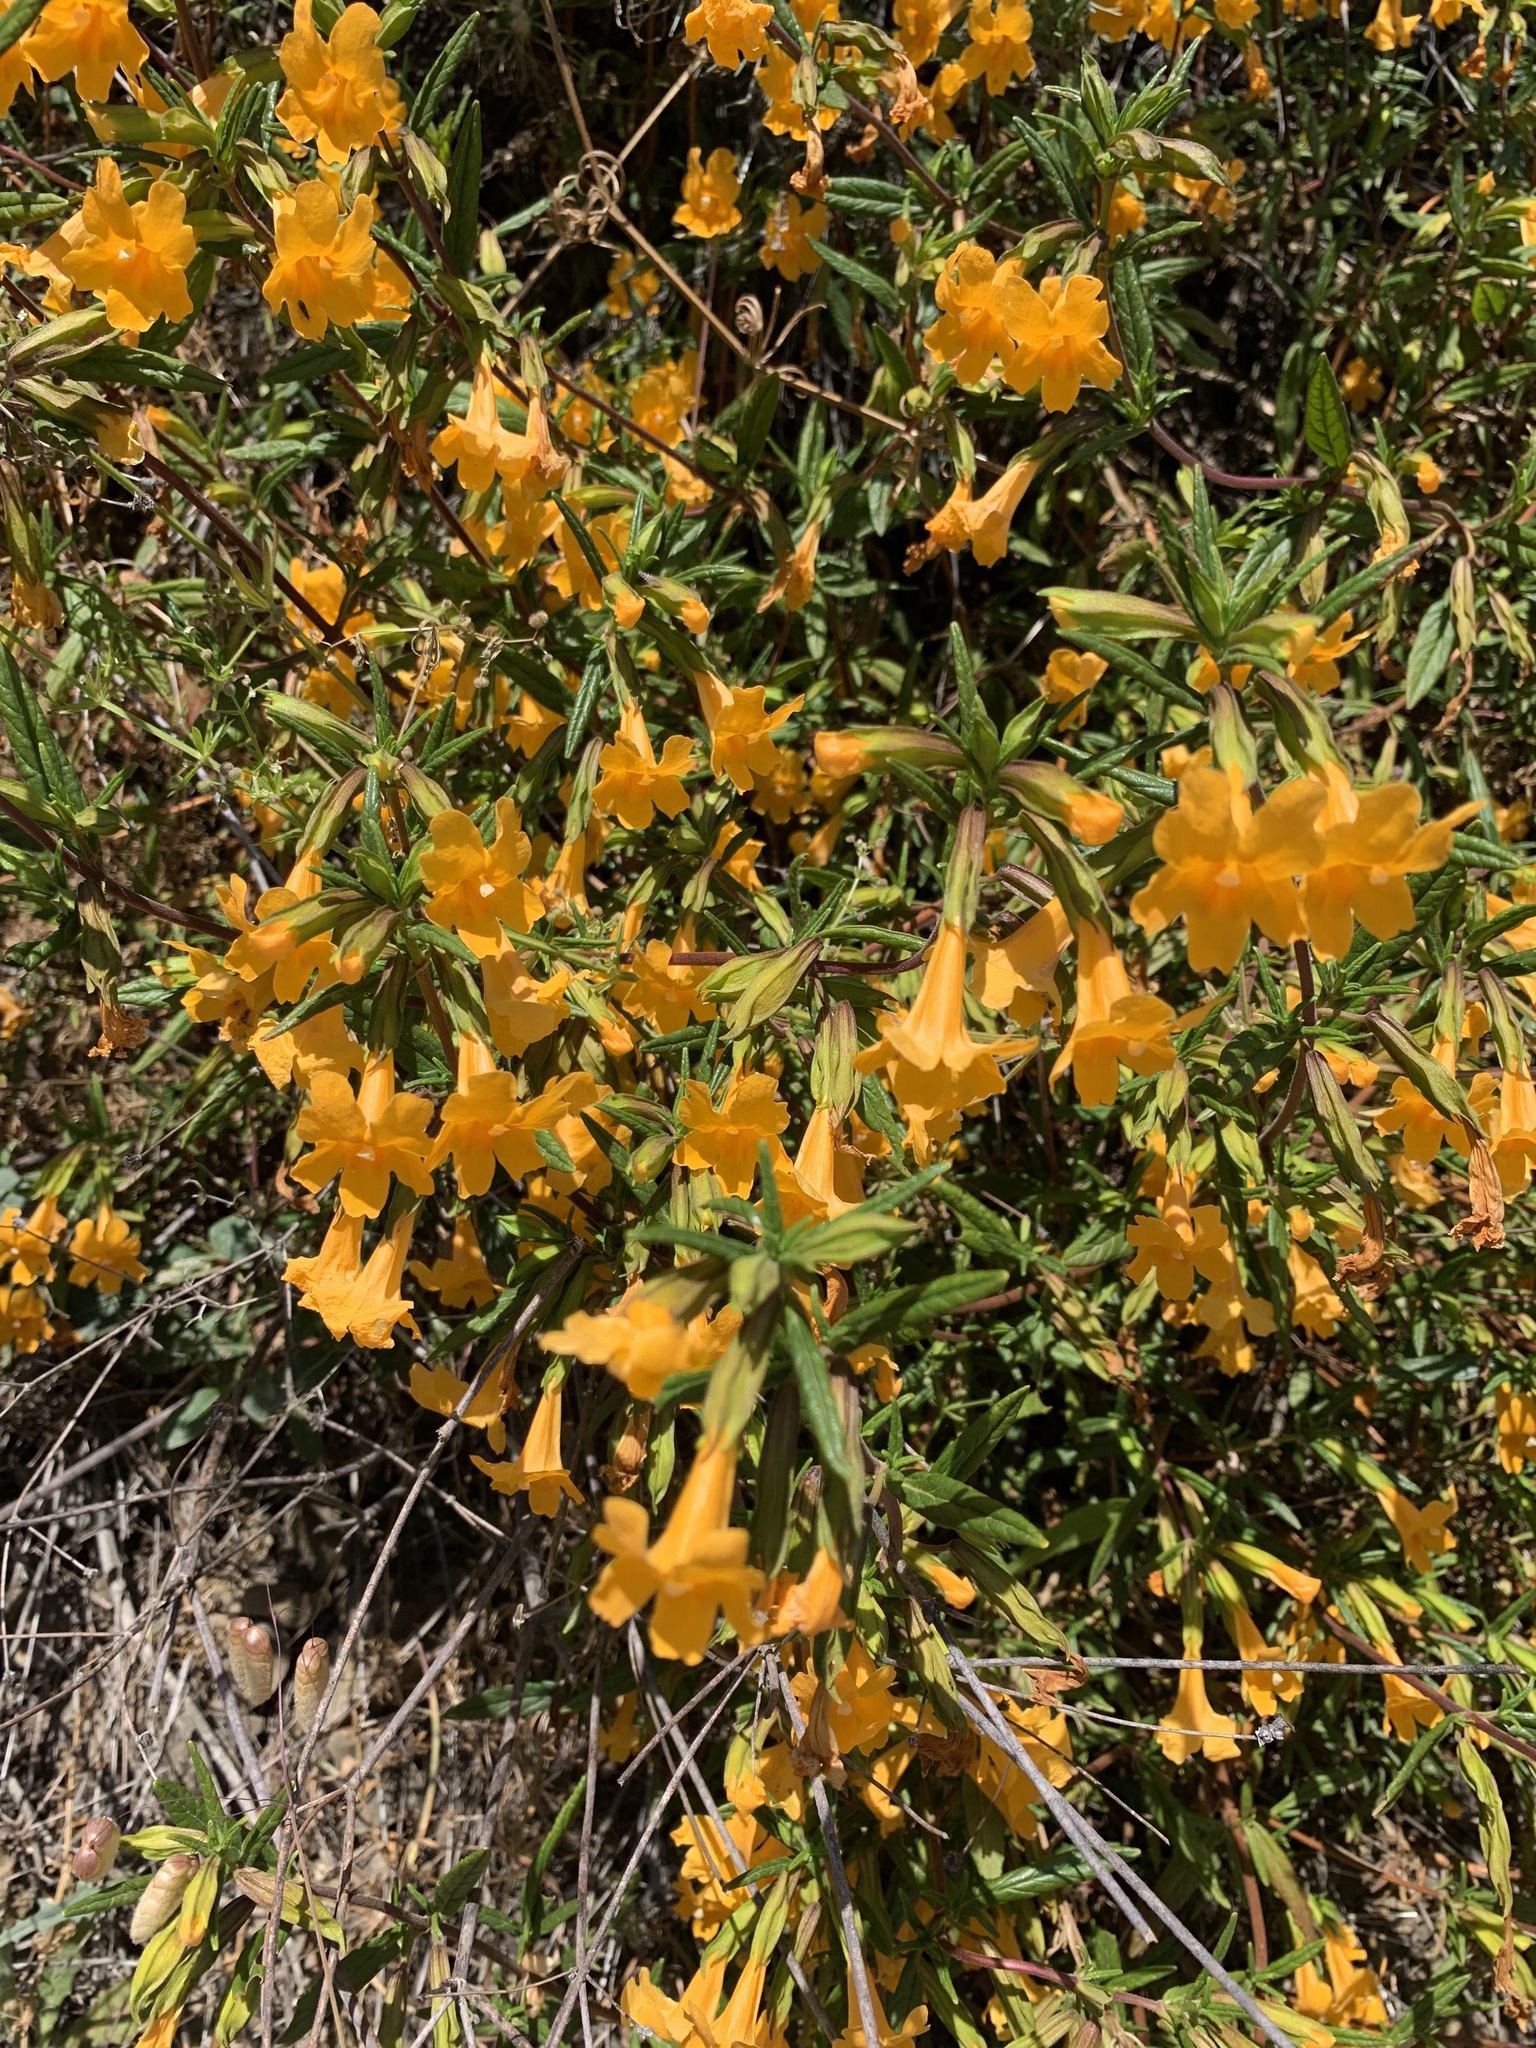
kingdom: Plantae
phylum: Tracheophyta
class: Magnoliopsida
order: Lamiales
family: Phrymaceae
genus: Diplacus
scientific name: Diplacus aurantiacus
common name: Bush monkey-flower
